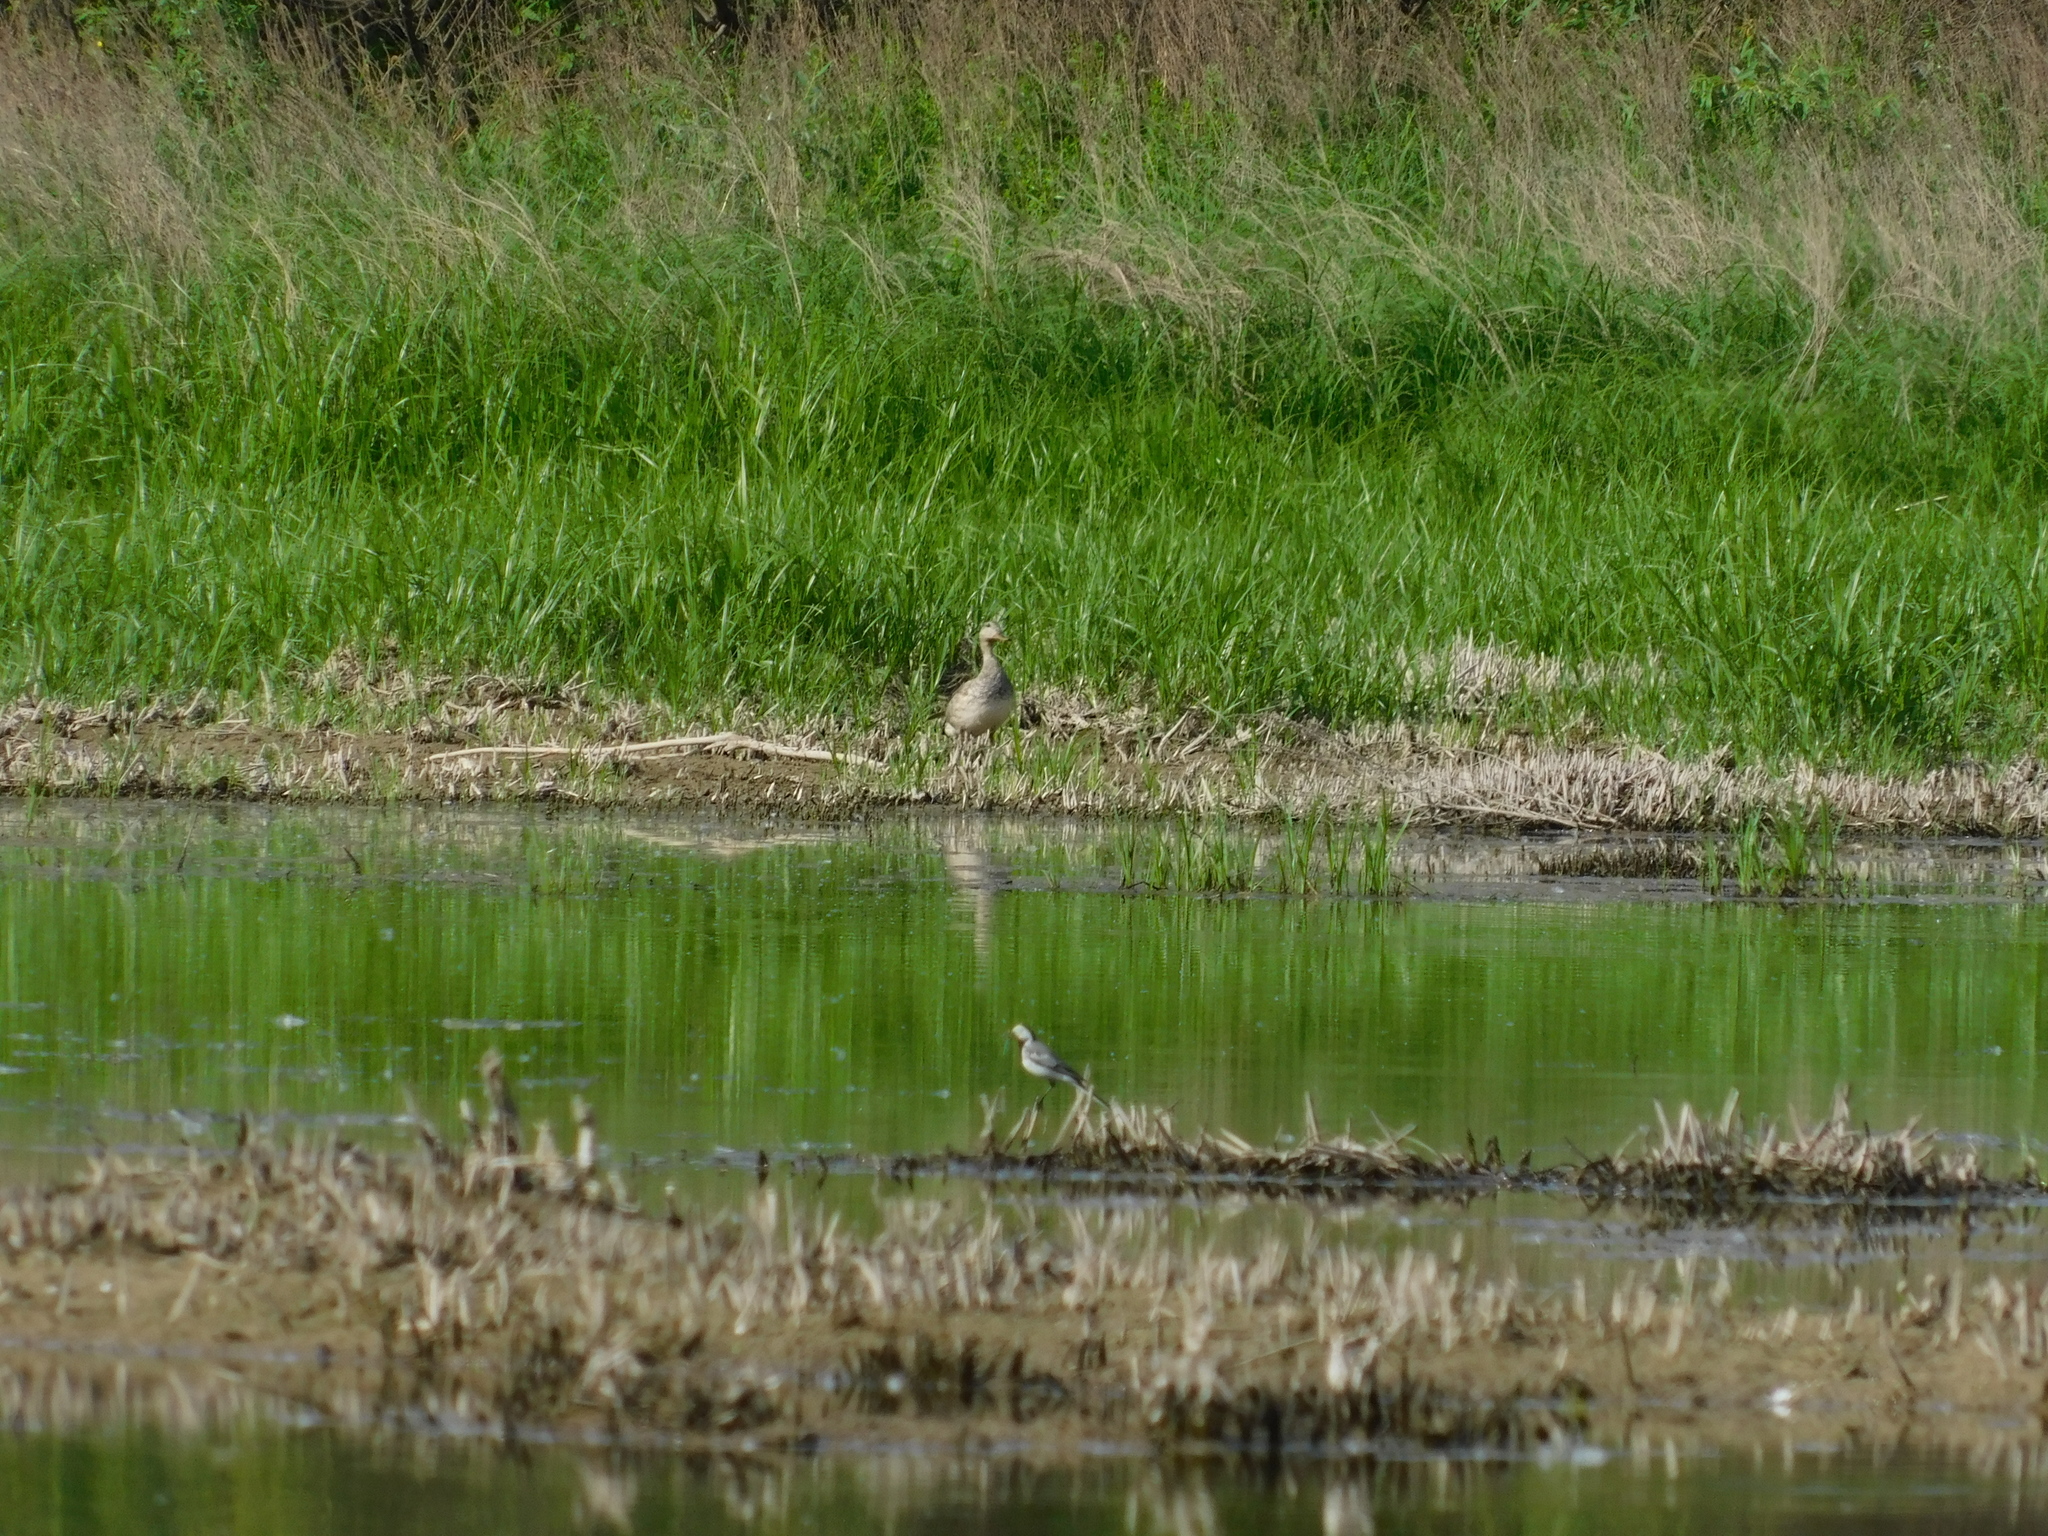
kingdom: Animalia
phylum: Chordata
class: Aves
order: Anseriformes
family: Anatidae
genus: Mareca
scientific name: Mareca strepera
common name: Gadwall
